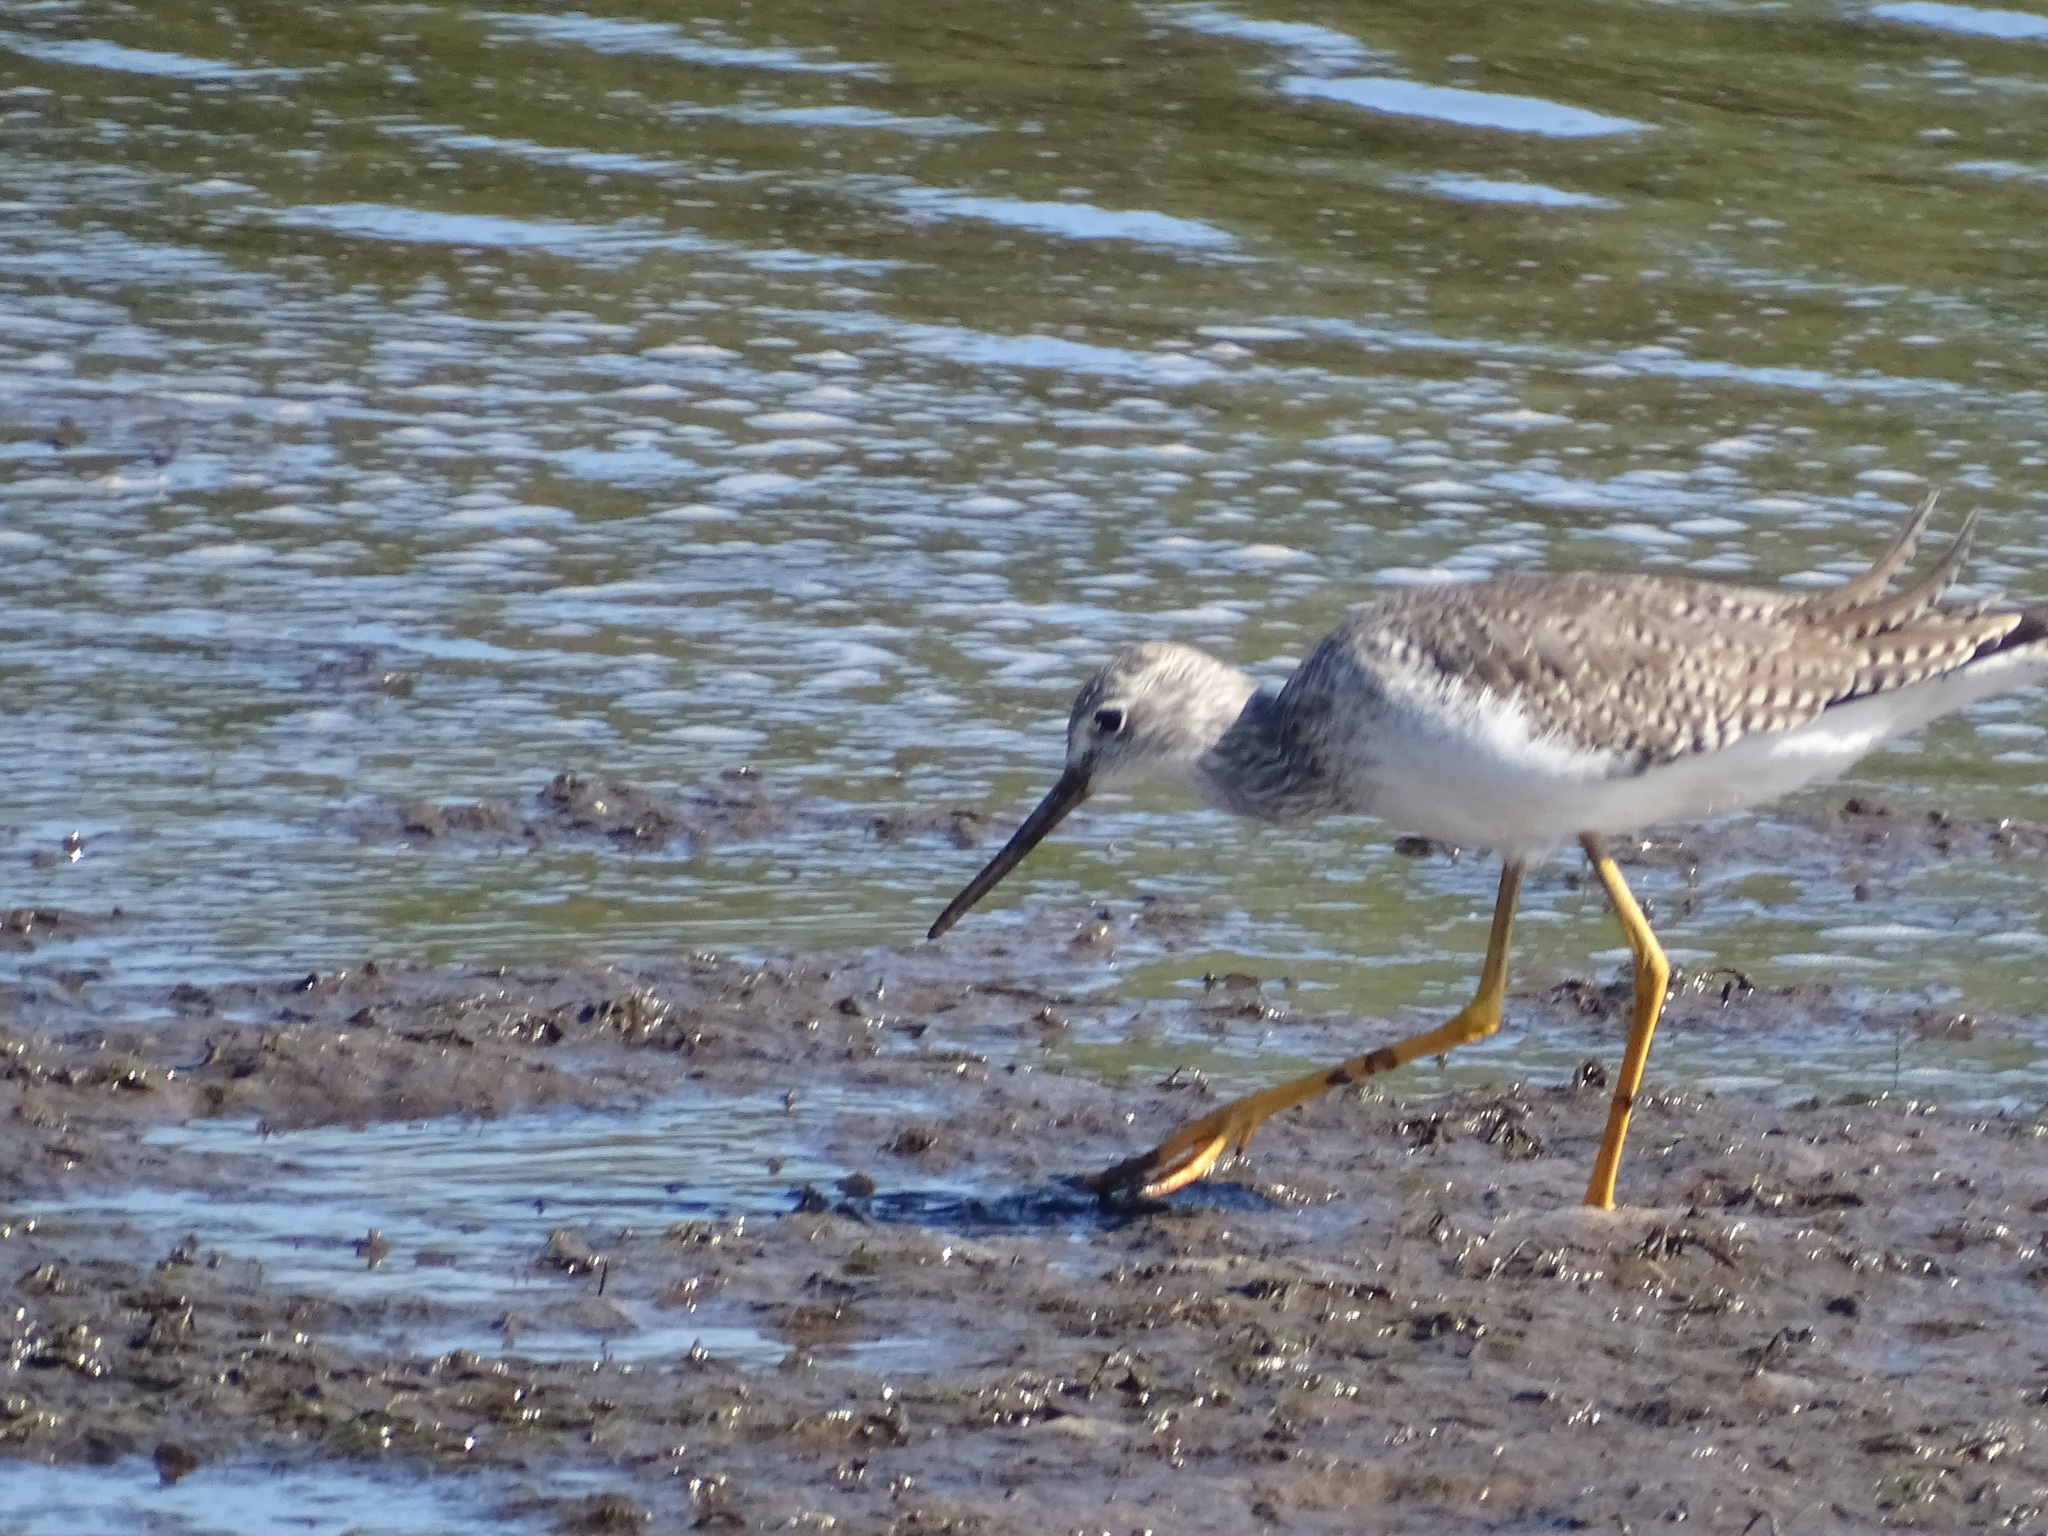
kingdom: Animalia
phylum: Chordata
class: Aves
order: Charadriiformes
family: Scolopacidae
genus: Tringa
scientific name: Tringa melanoleuca
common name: Greater yellowlegs
